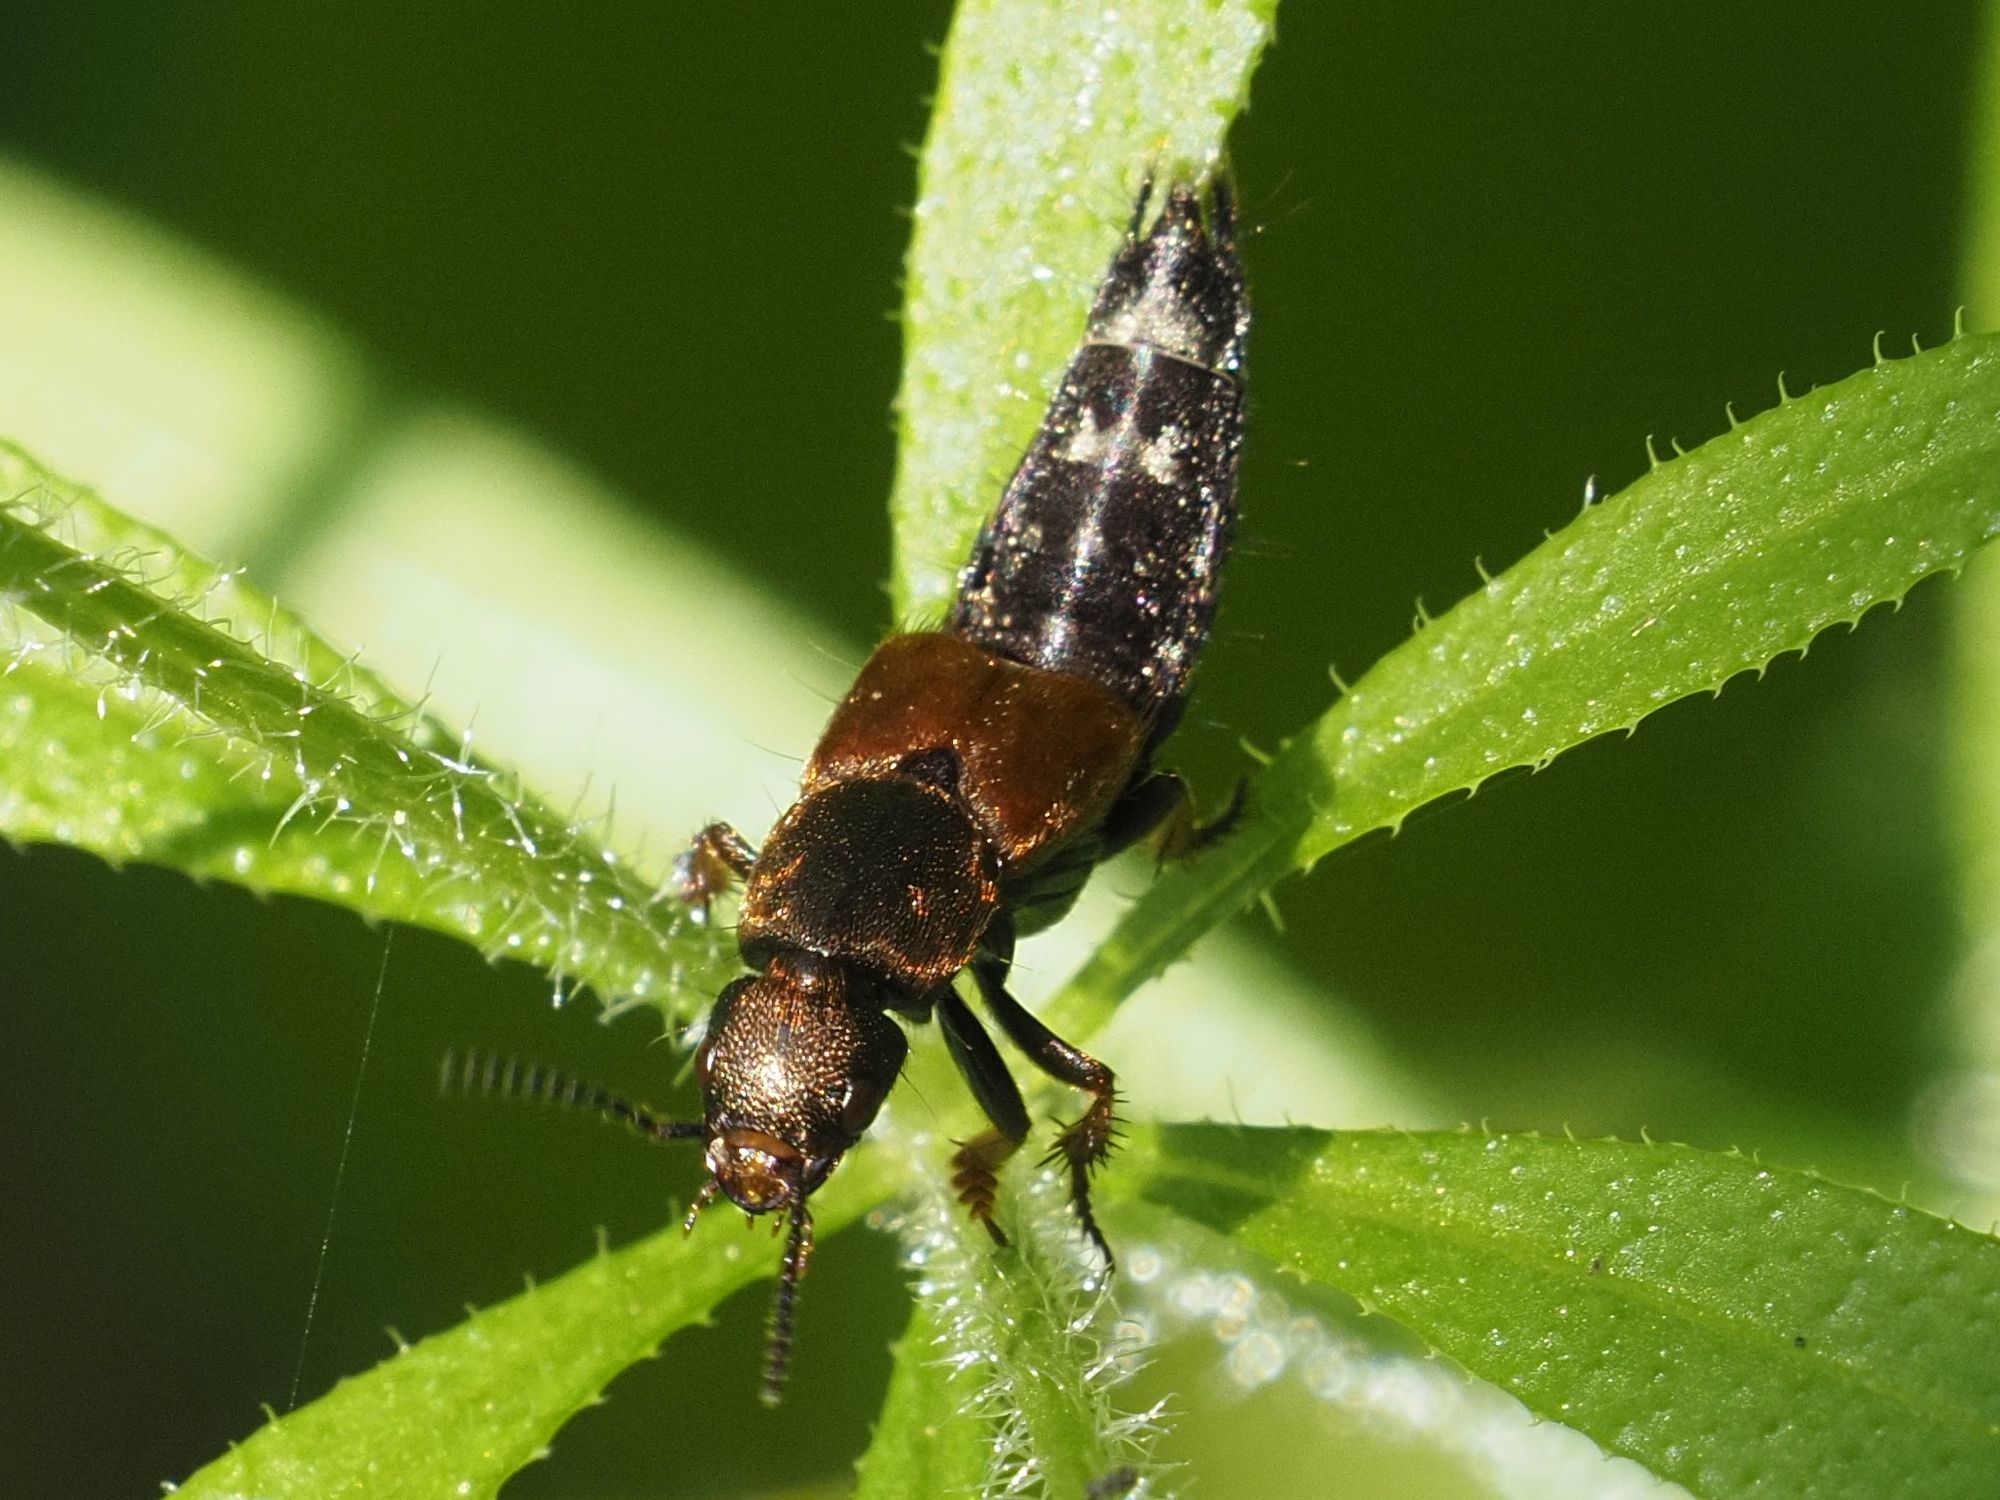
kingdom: Animalia
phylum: Arthropoda
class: Insecta
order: Coleoptera
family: Staphylinidae
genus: Platydracus
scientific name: Platydracus latebricola
